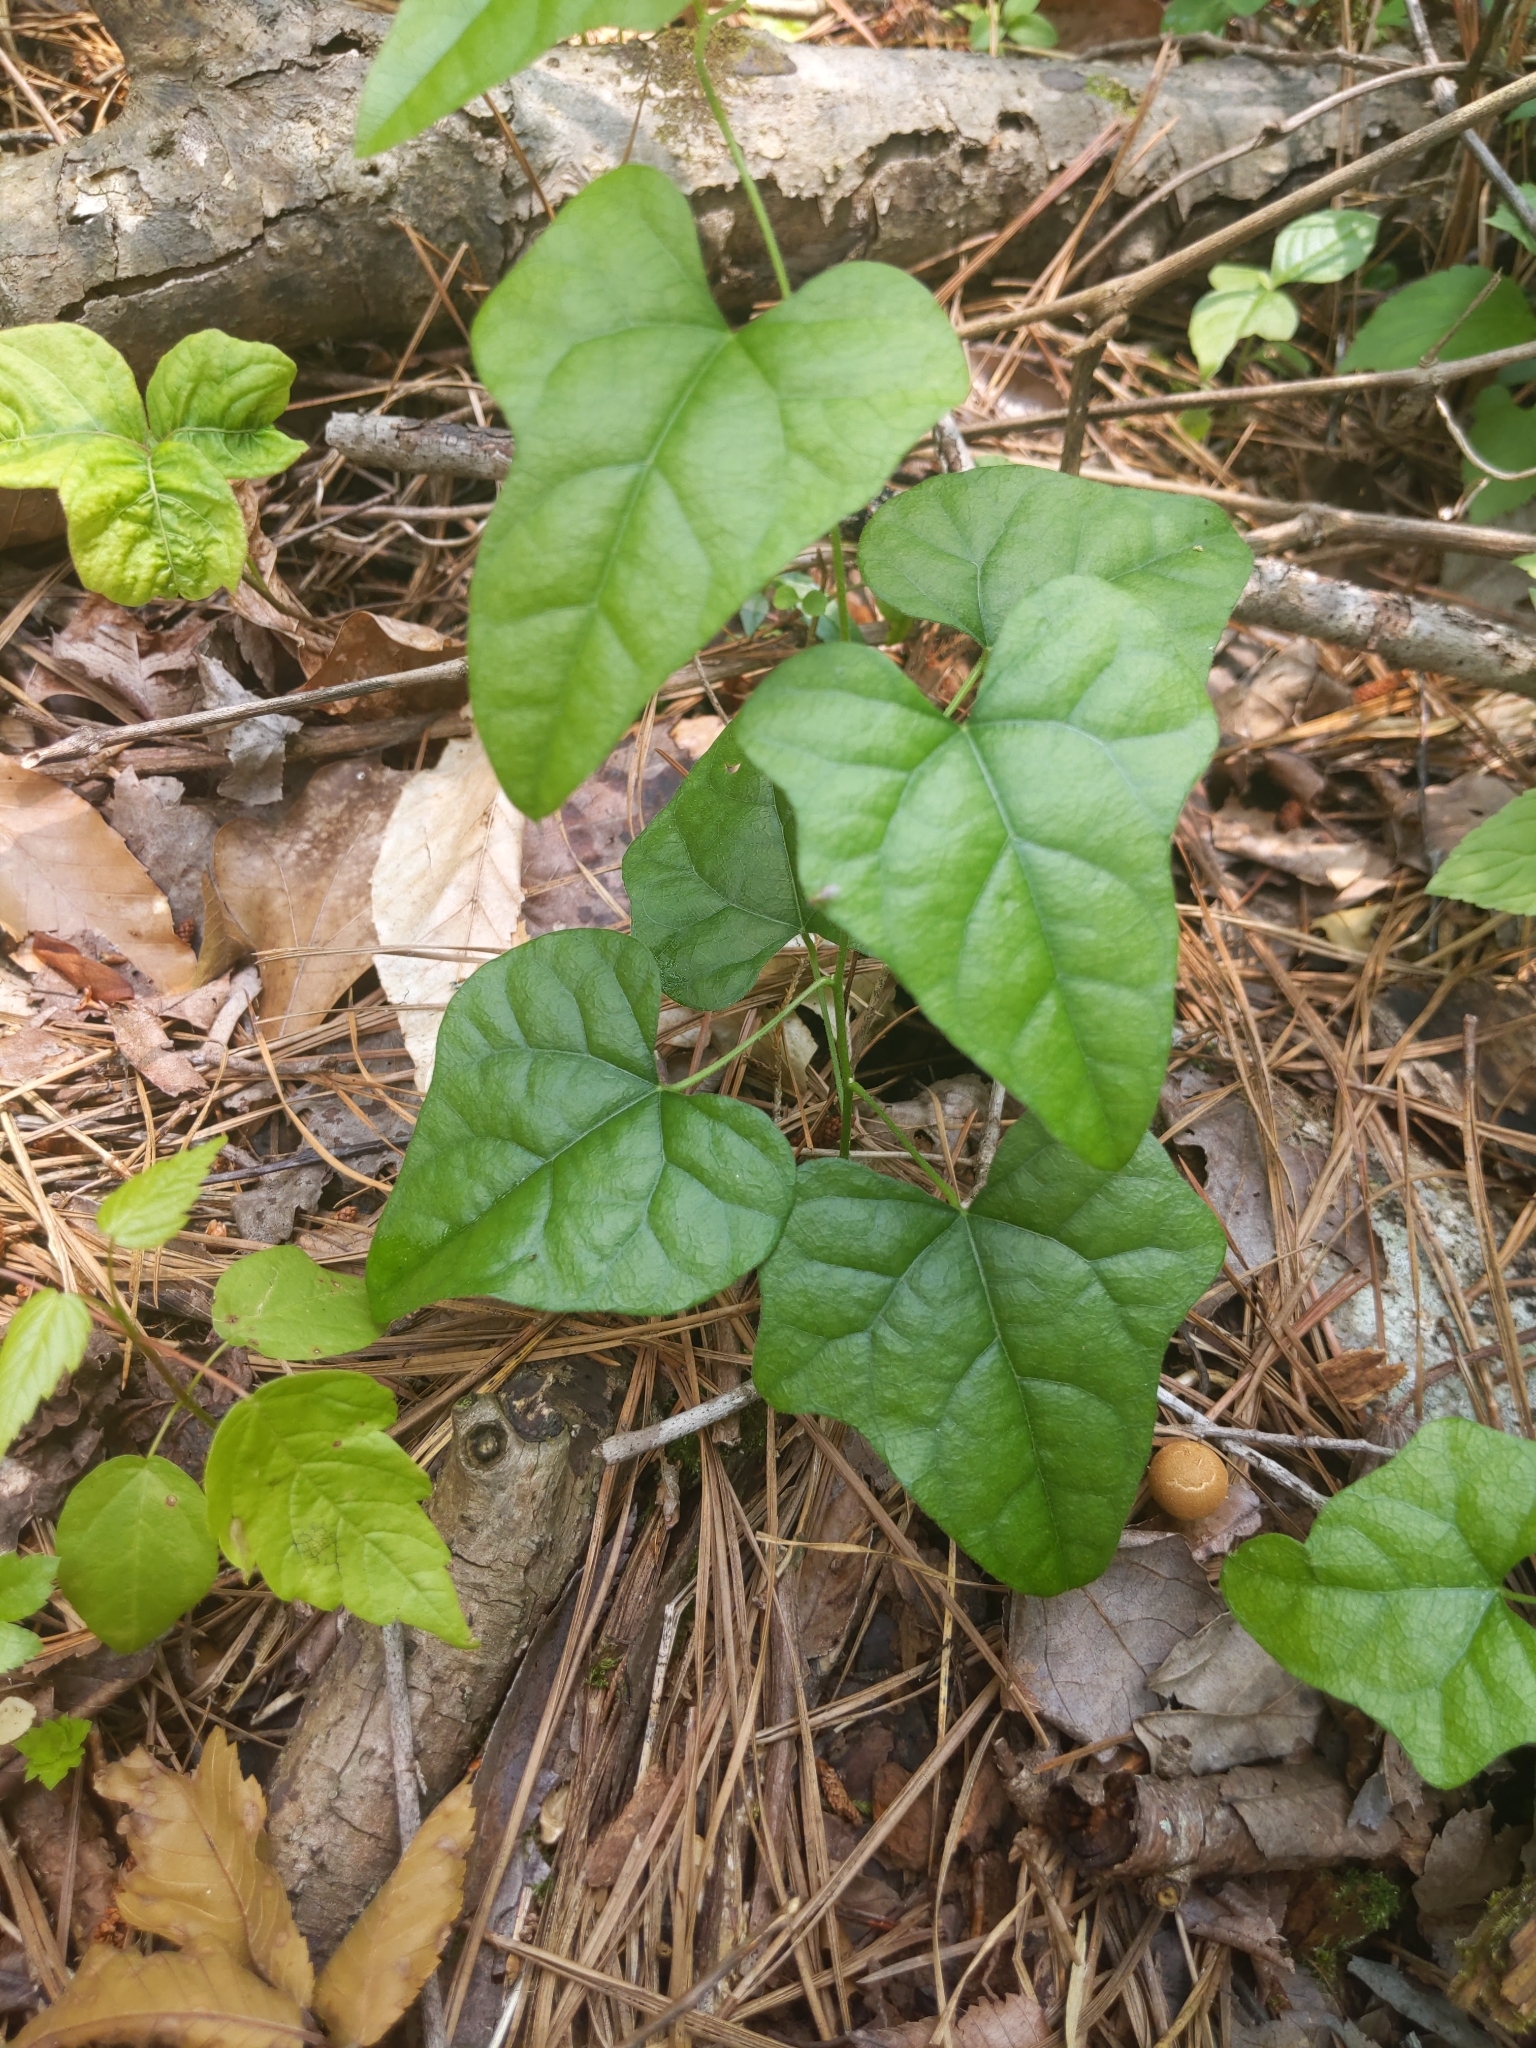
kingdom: Plantae
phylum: Tracheophyta
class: Magnoliopsida
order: Ranunculales
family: Menispermaceae
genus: Cocculus
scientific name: Cocculus carolinus
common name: Carolina moonseed
